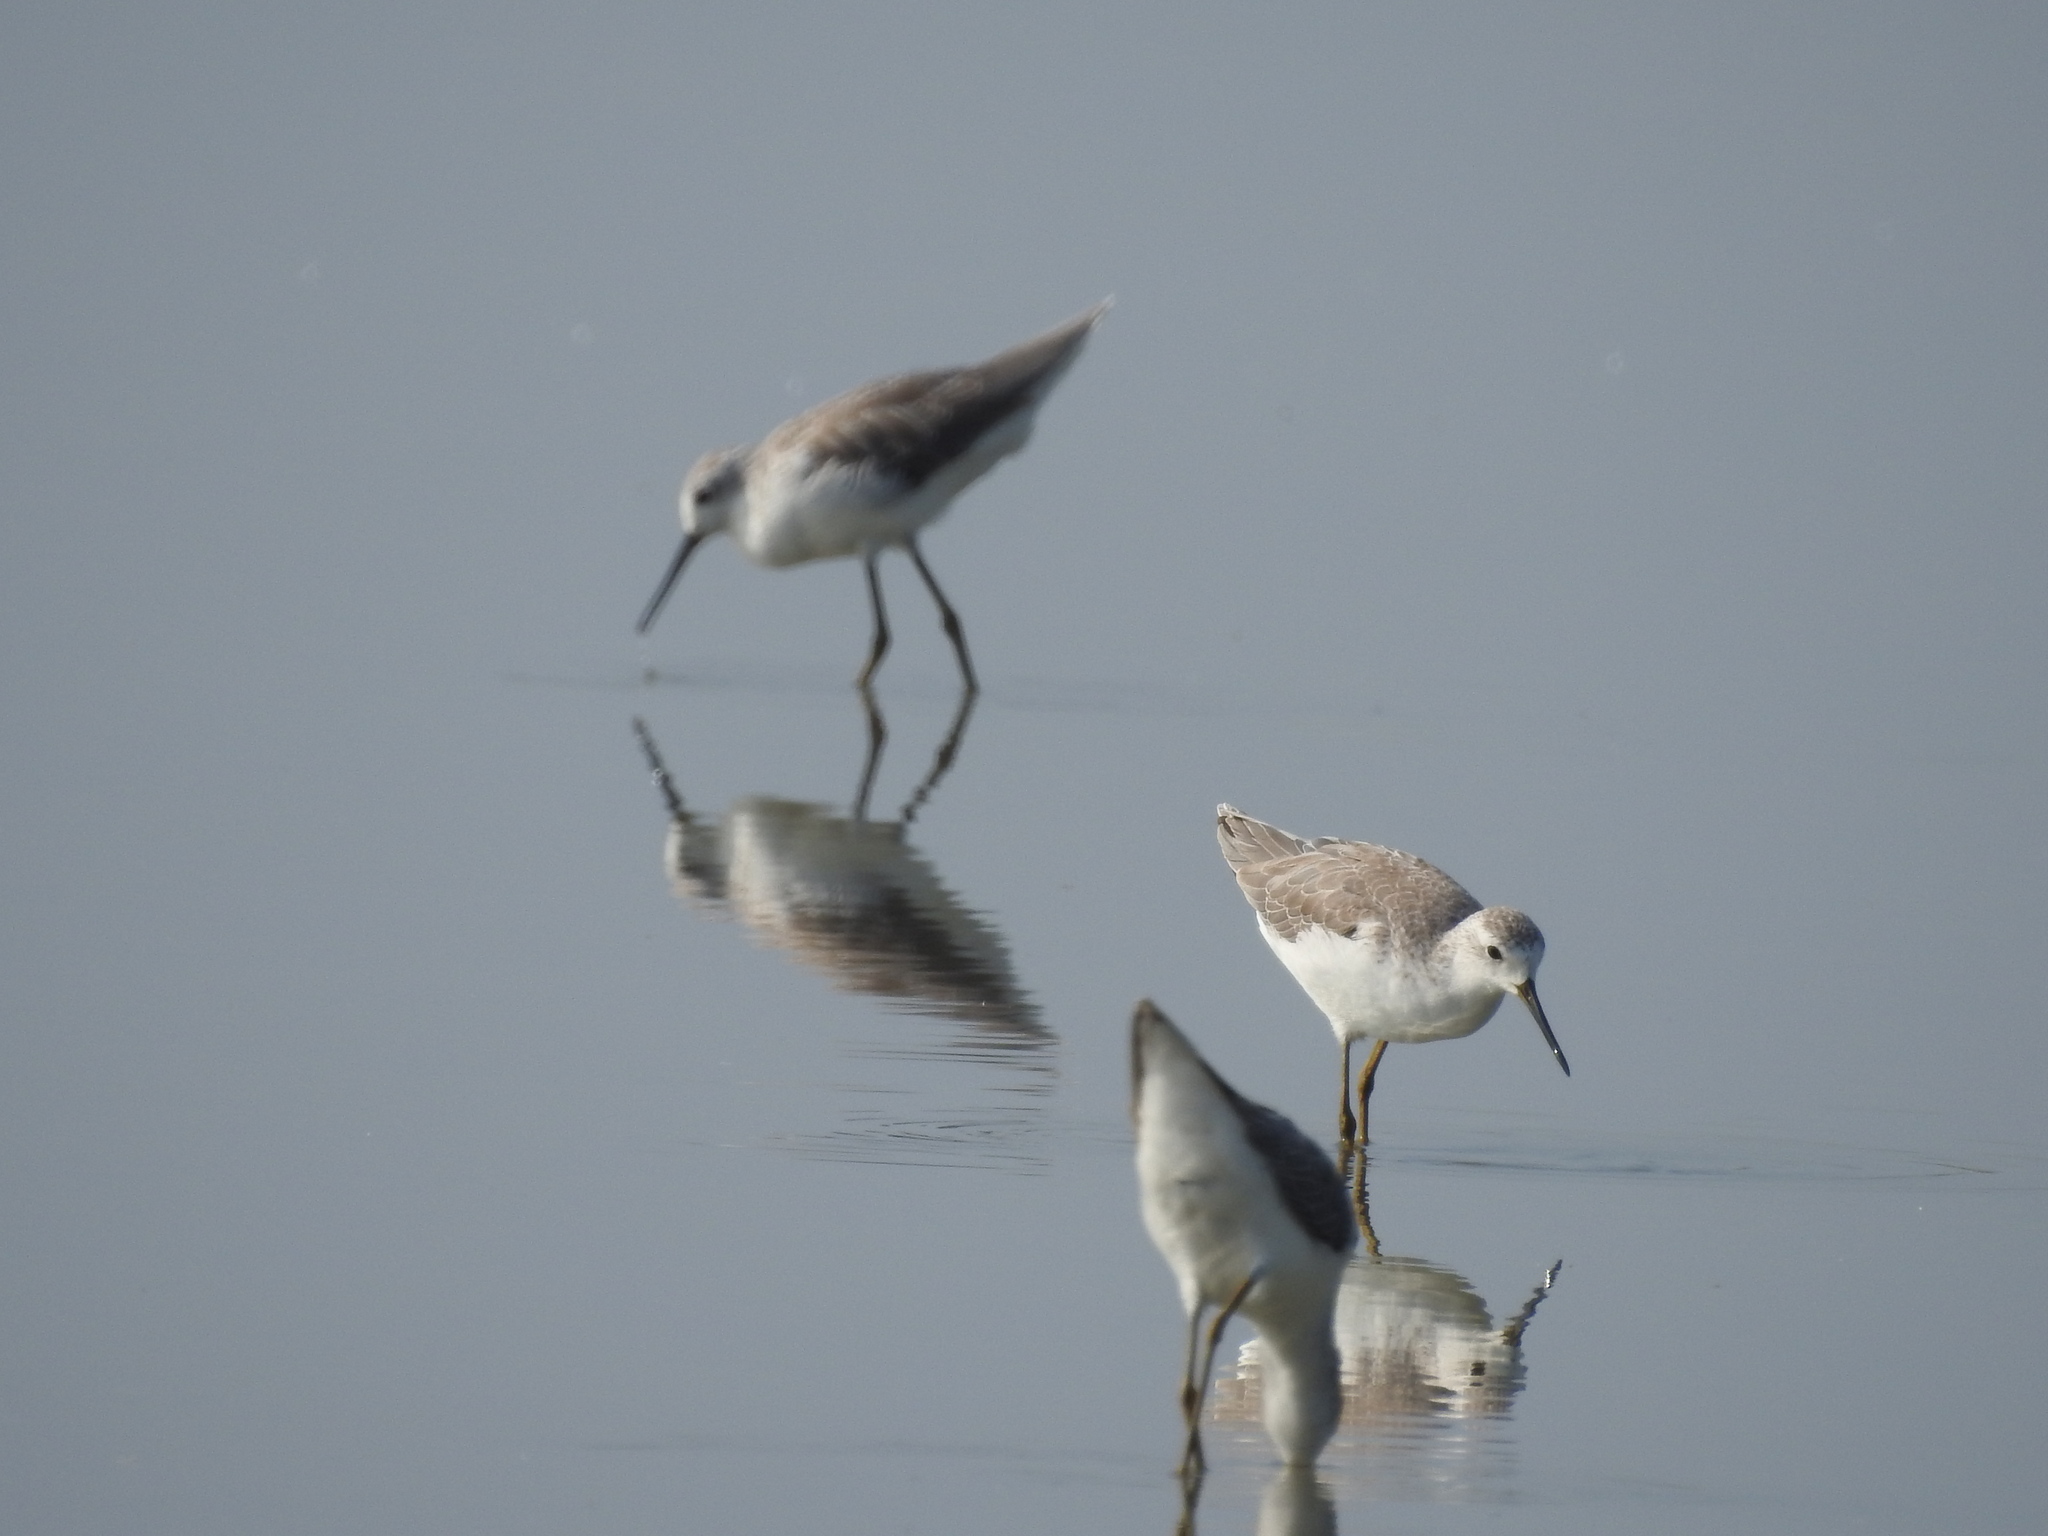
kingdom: Animalia
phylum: Chordata
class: Aves
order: Charadriiformes
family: Scolopacidae
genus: Tringa
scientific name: Tringa stagnatilis
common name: Marsh sandpiper
